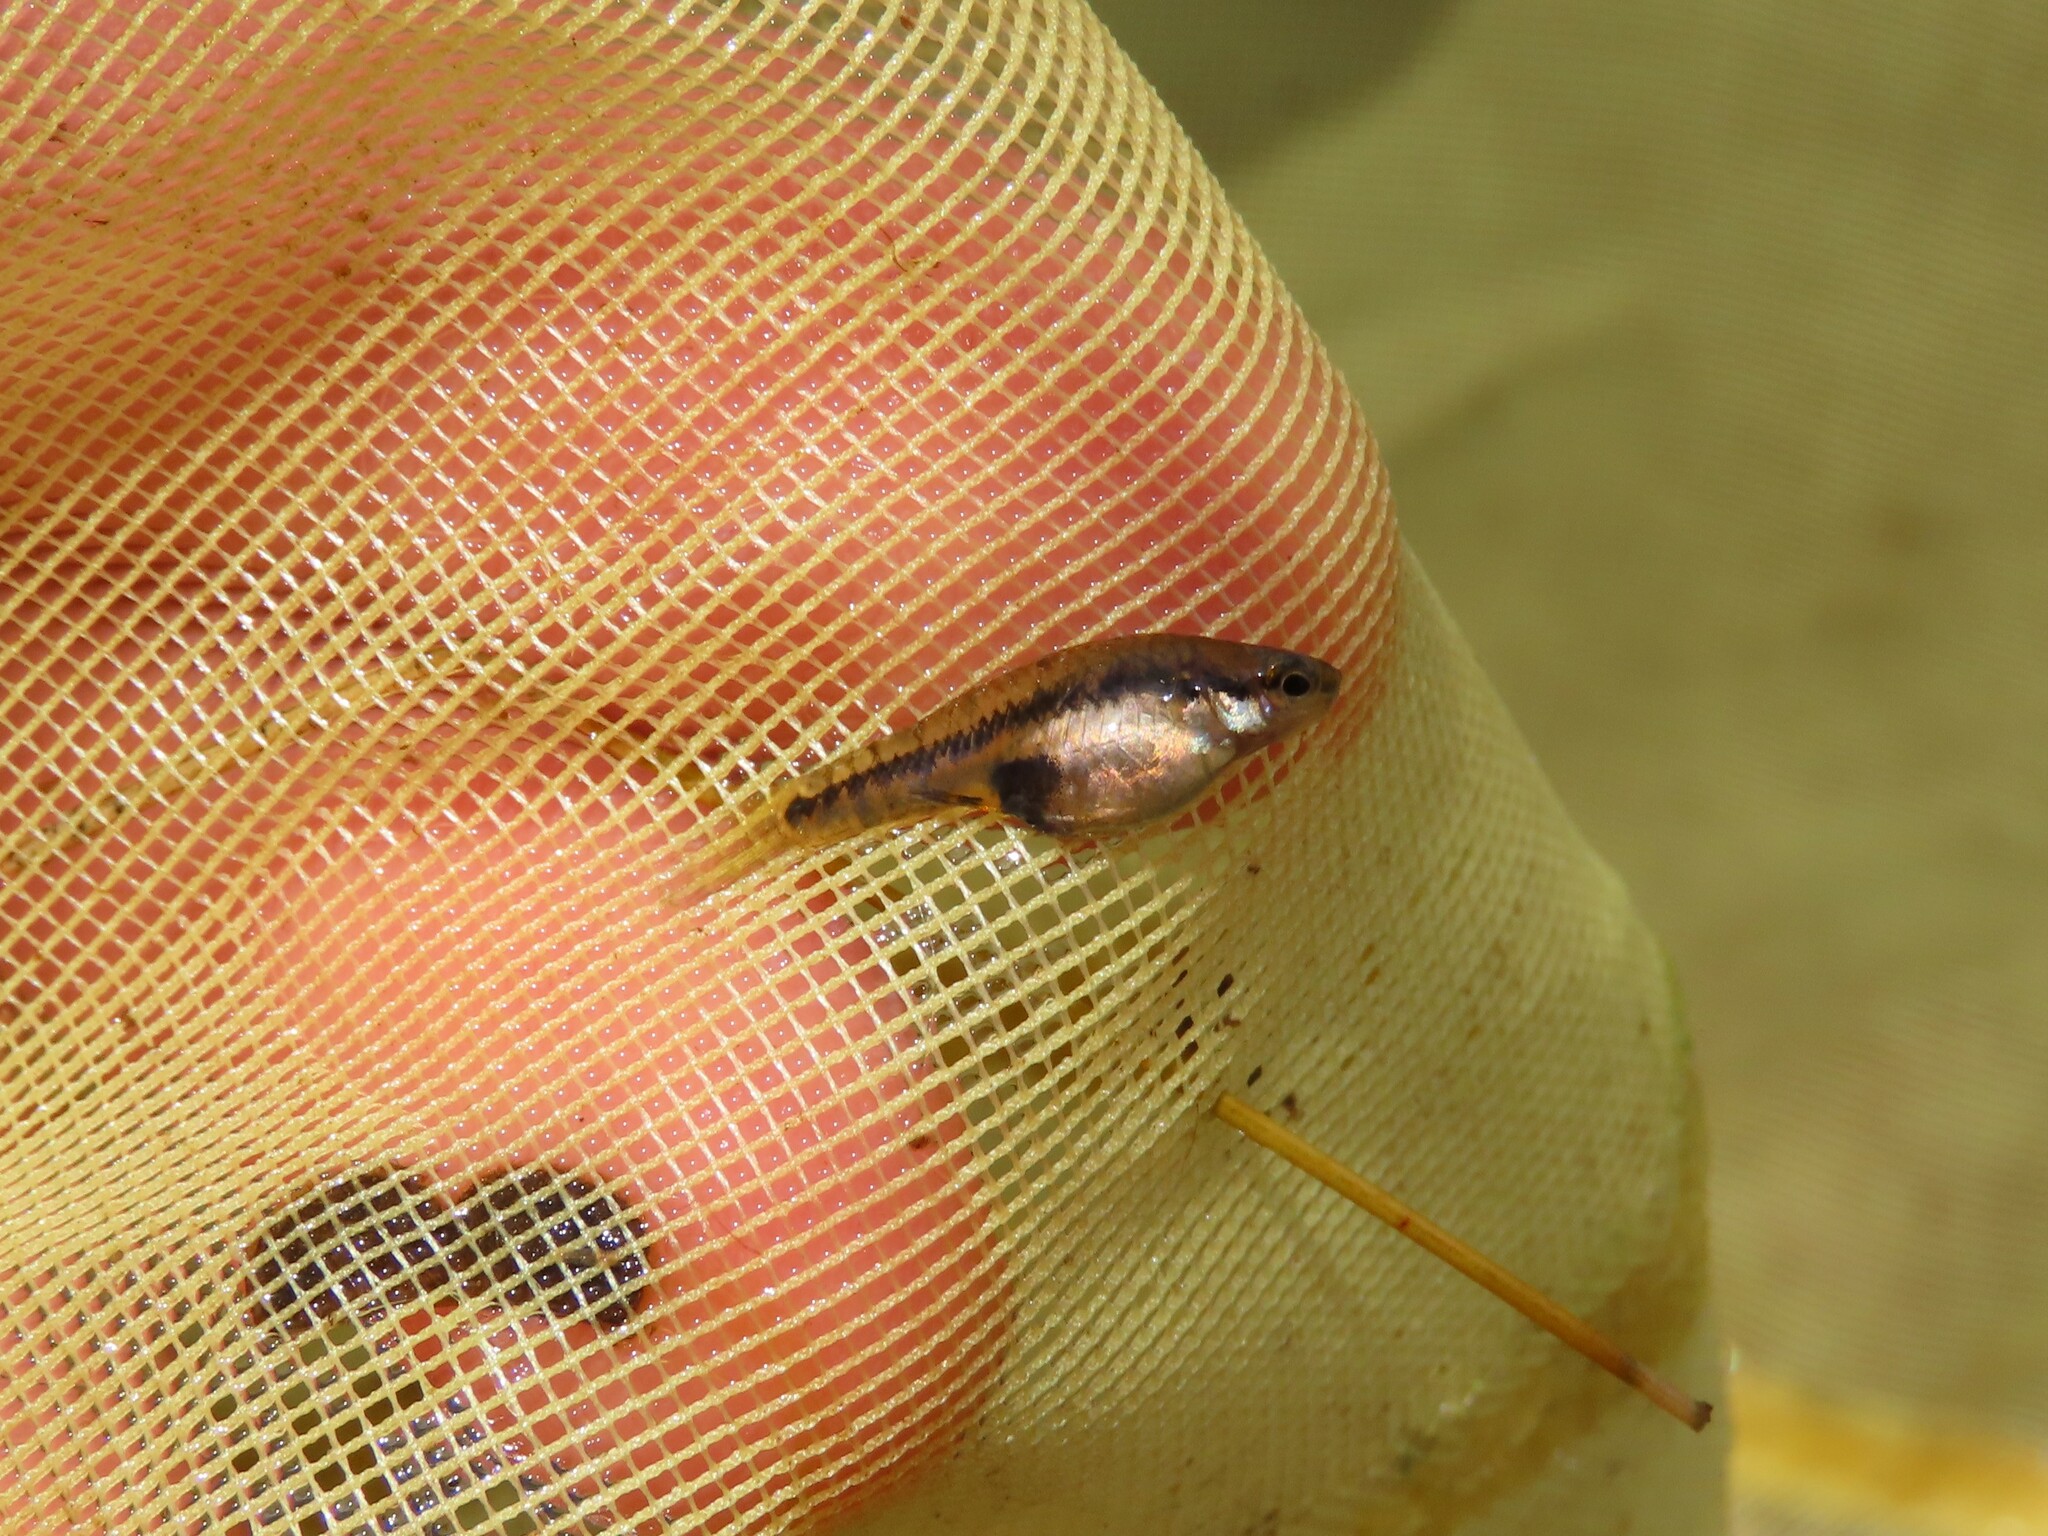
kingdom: Animalia
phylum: Chordata
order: Cyprinodontiformes
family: Poeciliidae
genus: Heterandria
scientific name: Heterandria formosa
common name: Least killifish
